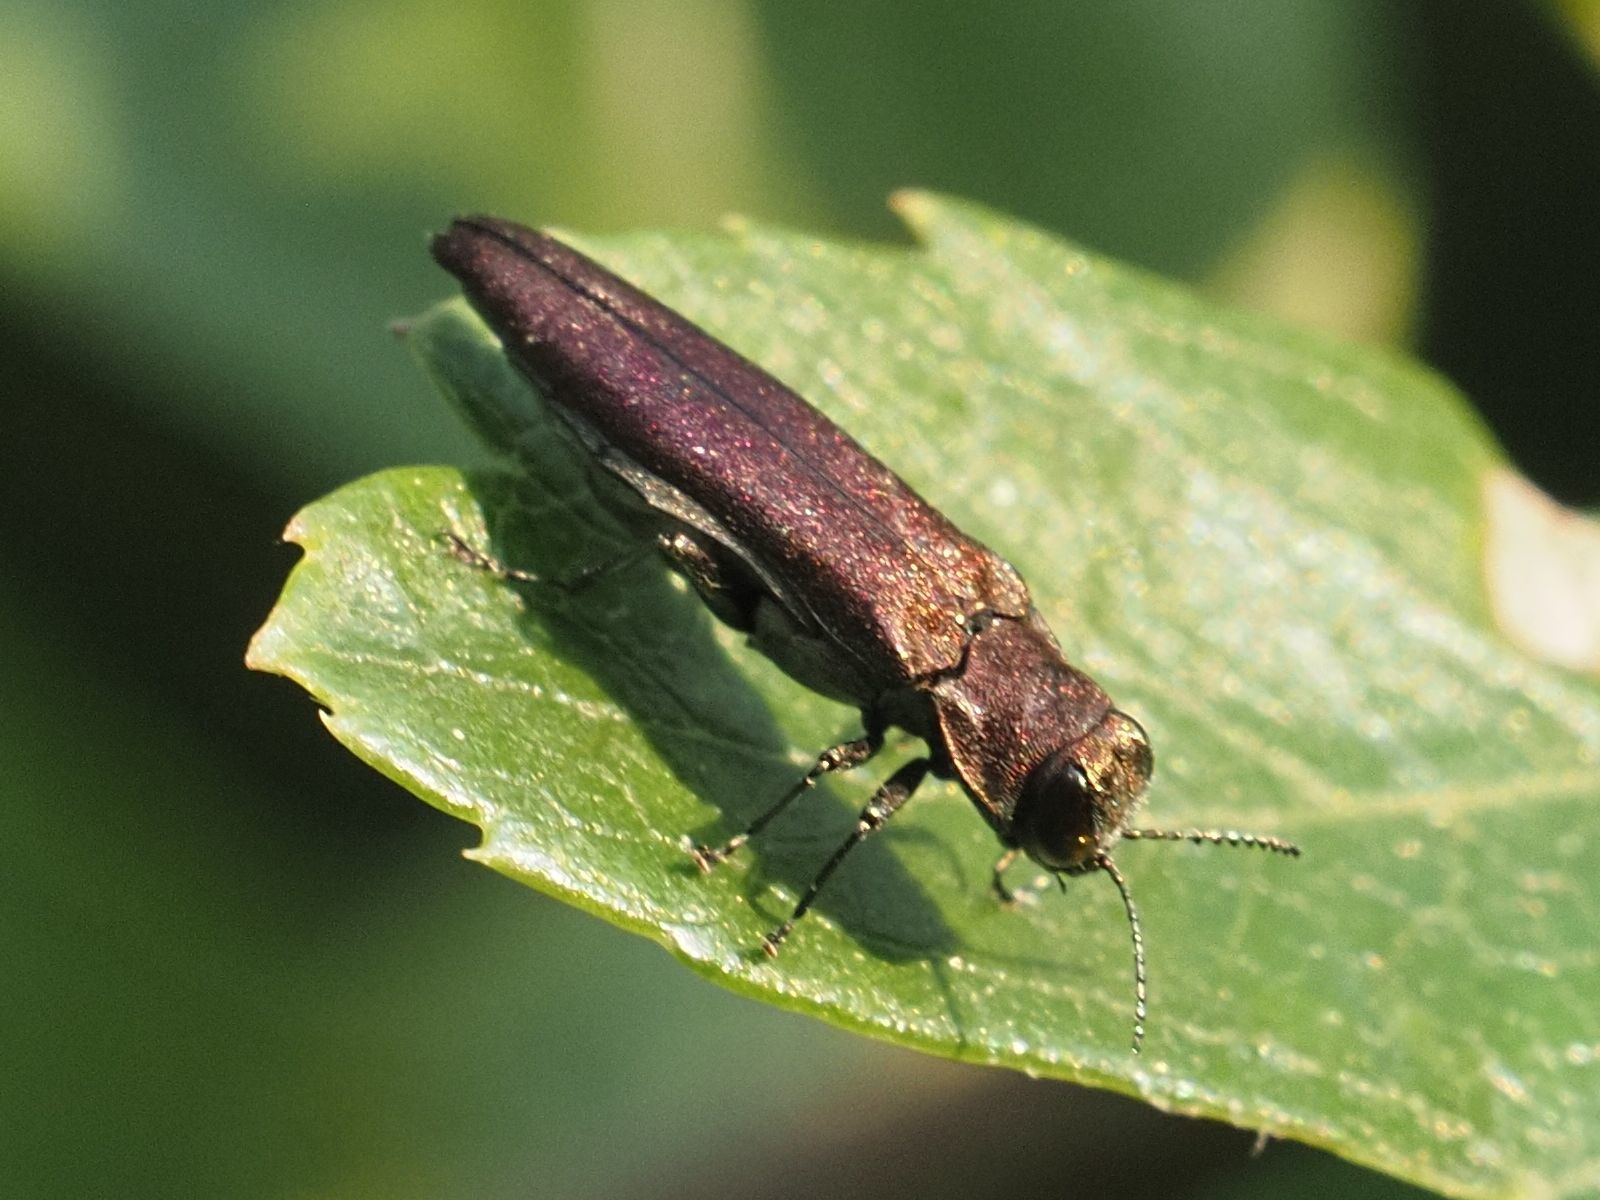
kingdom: Animalia
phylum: Arthropoda
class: Insecta
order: Coleoptera
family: Buprestidae
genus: Agrilus
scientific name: Agrilus sinuatus
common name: Metallic wood-boring beetle
